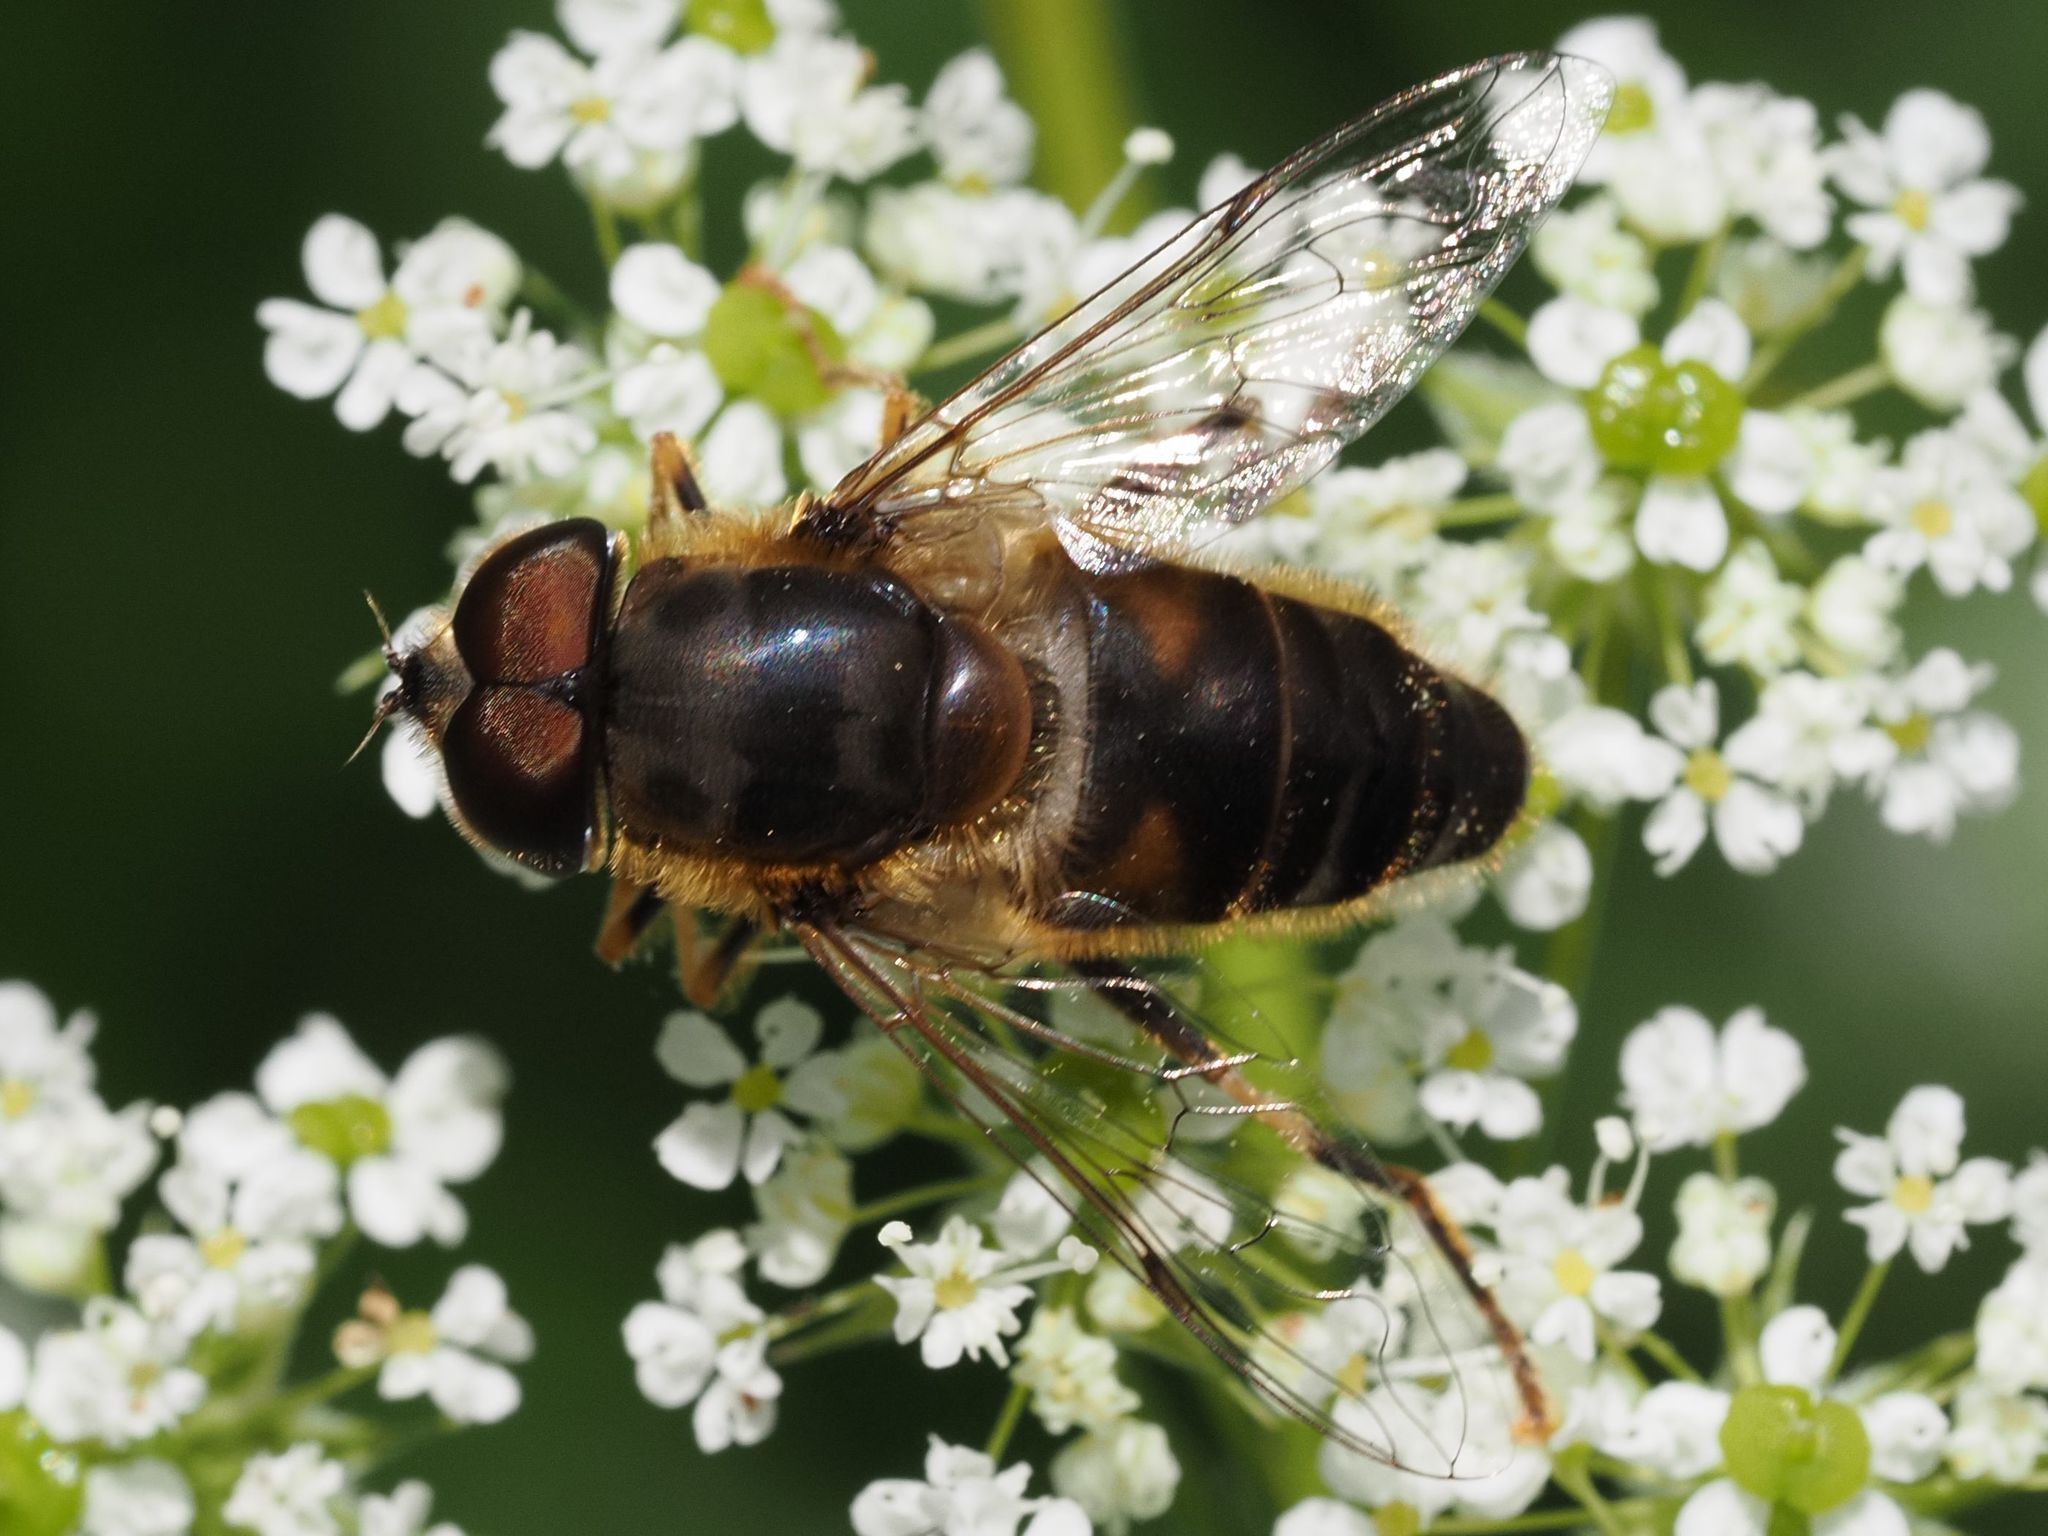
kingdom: Animalia
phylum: Arthropoda
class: Insecta
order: Diptera
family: Syrphidae
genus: Eristalis
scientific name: Eristalis pertinax
